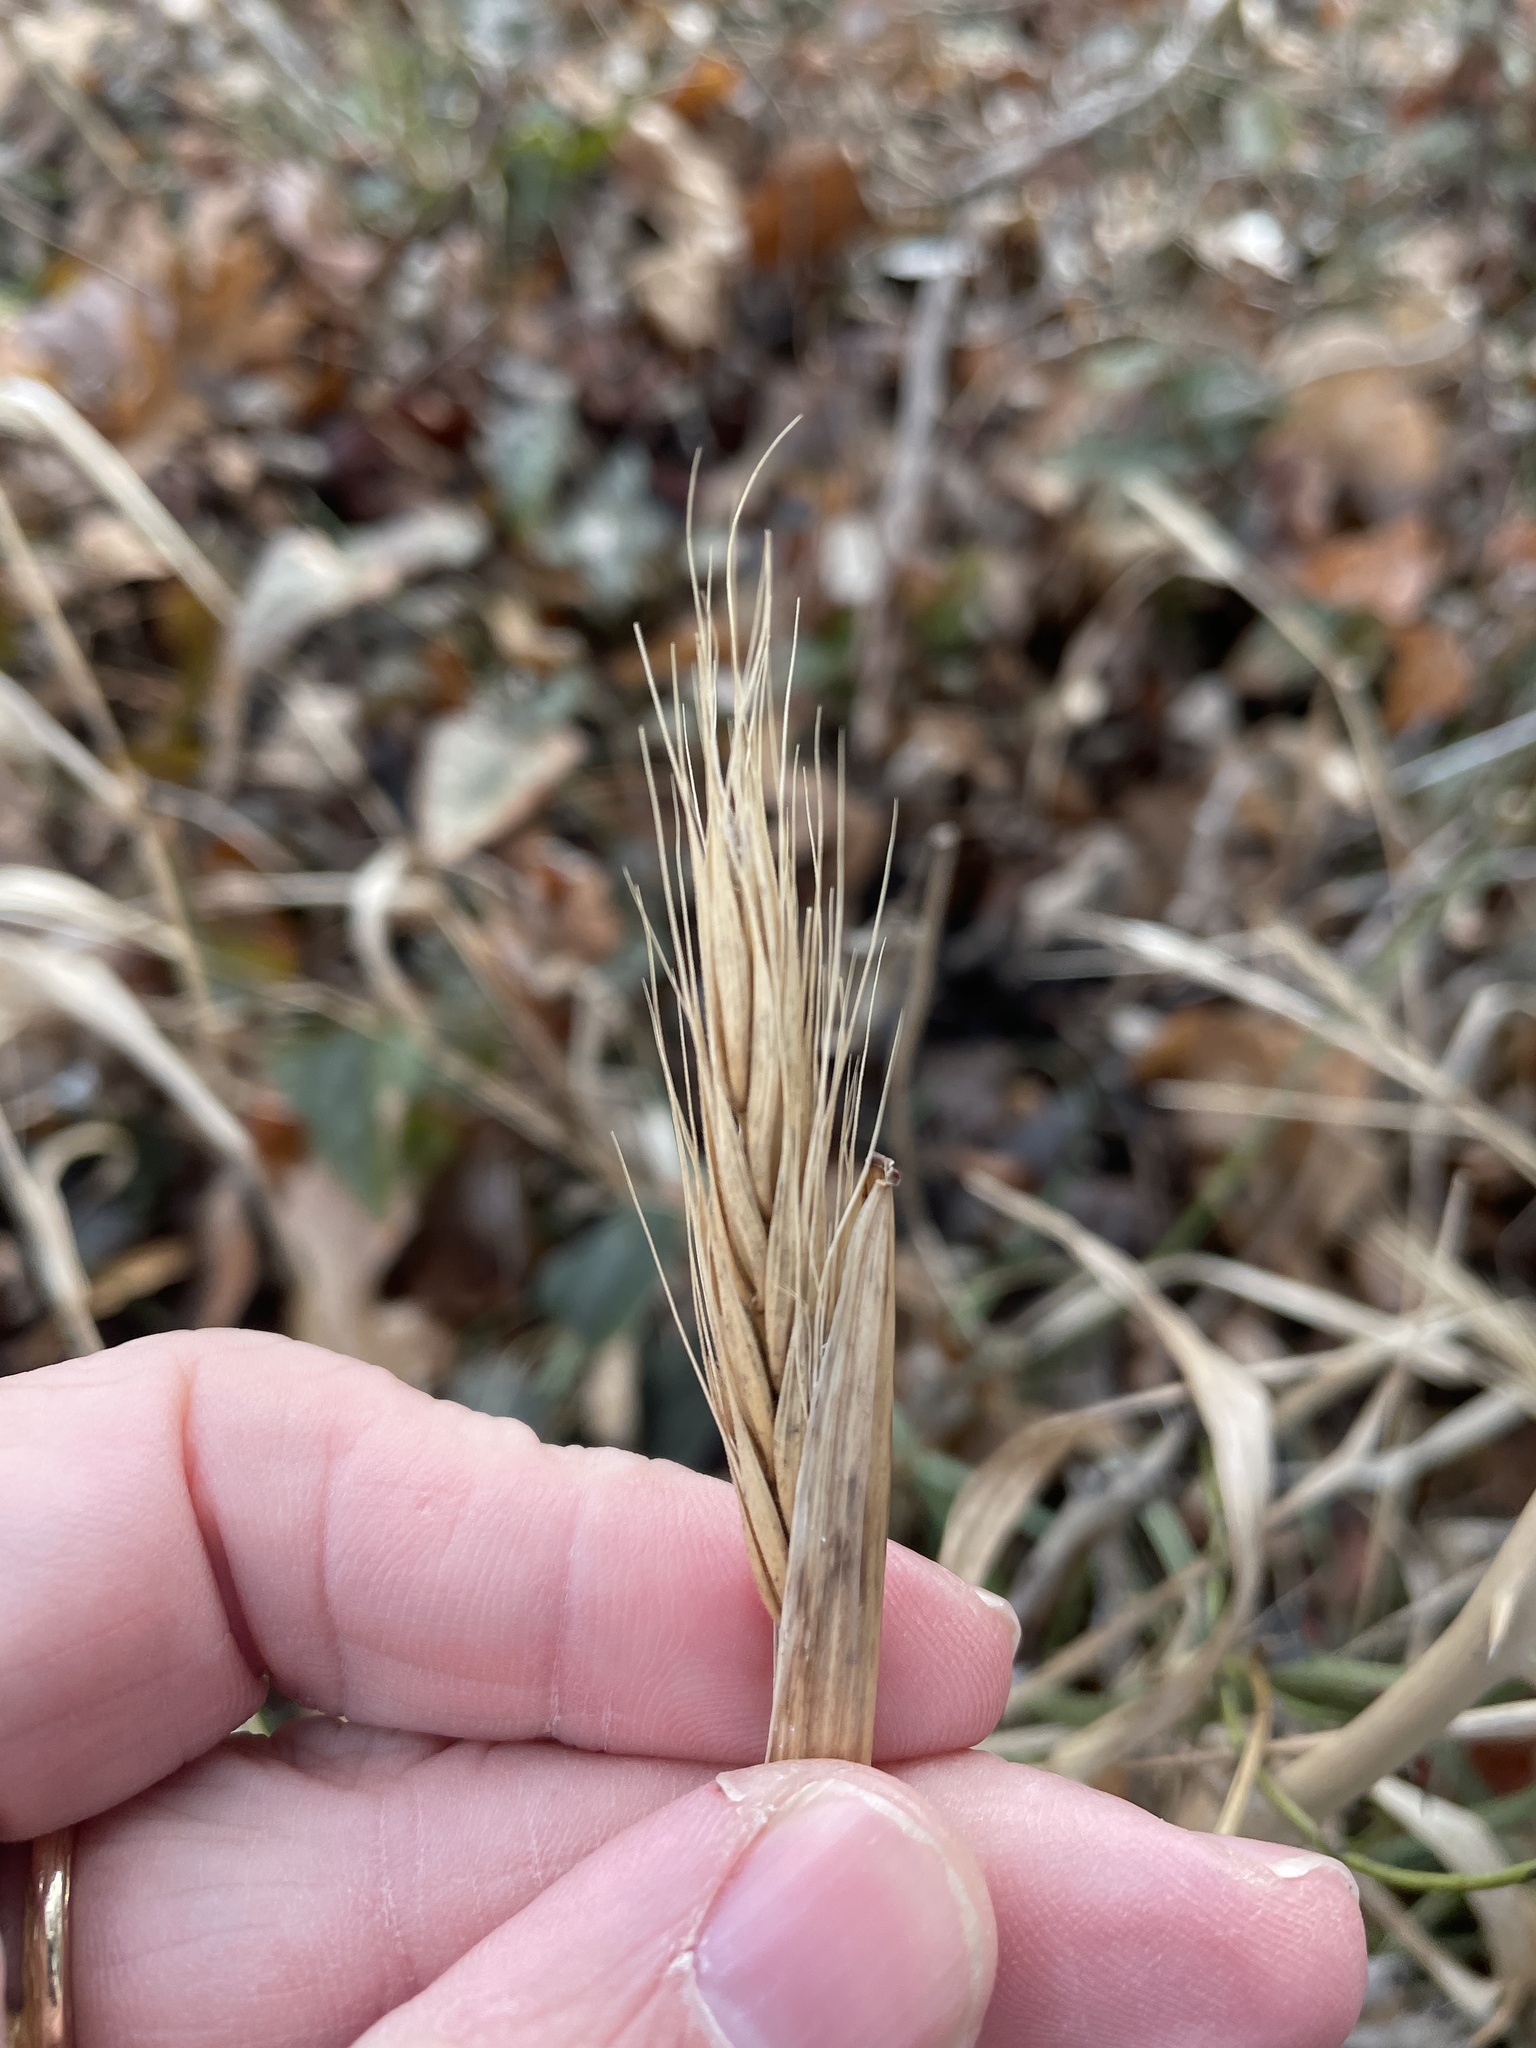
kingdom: Plantae
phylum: Tracheophyta
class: Liliopsida
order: Poales
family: Poaceae
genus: Elymus
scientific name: Elymus virginicus
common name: Common eastern wildrye
